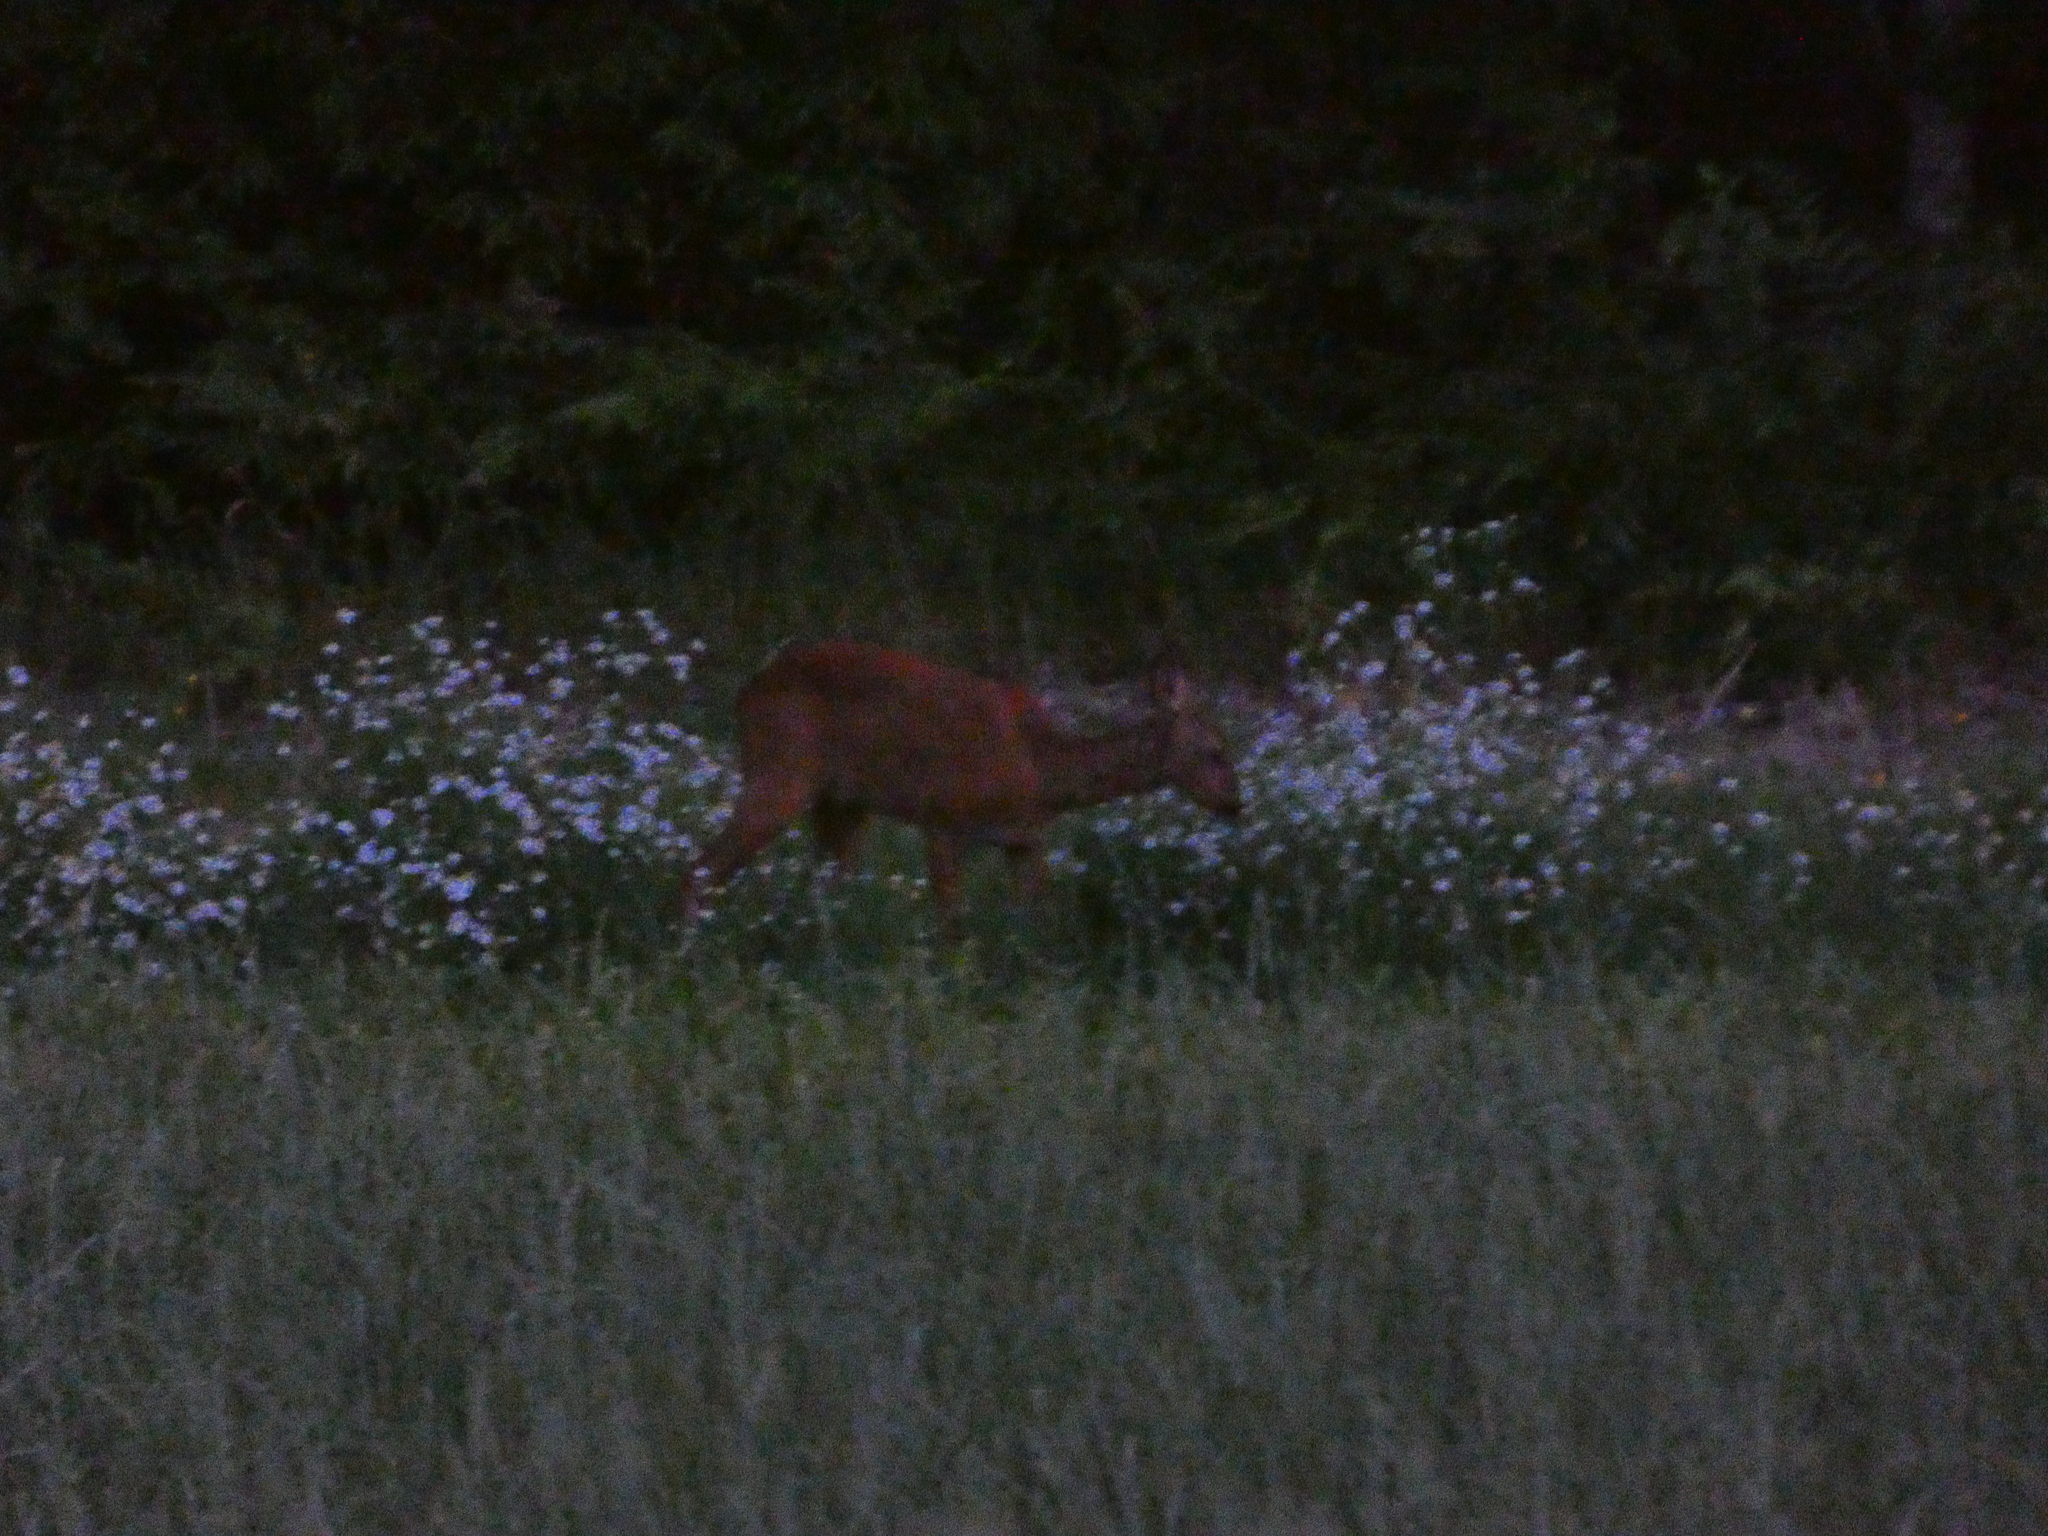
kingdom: Animalia
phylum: Chordata
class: Mammalia
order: Artiodactyla
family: Cervidae
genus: Capreolus
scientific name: Capreolus capreolus
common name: Western roe deer
